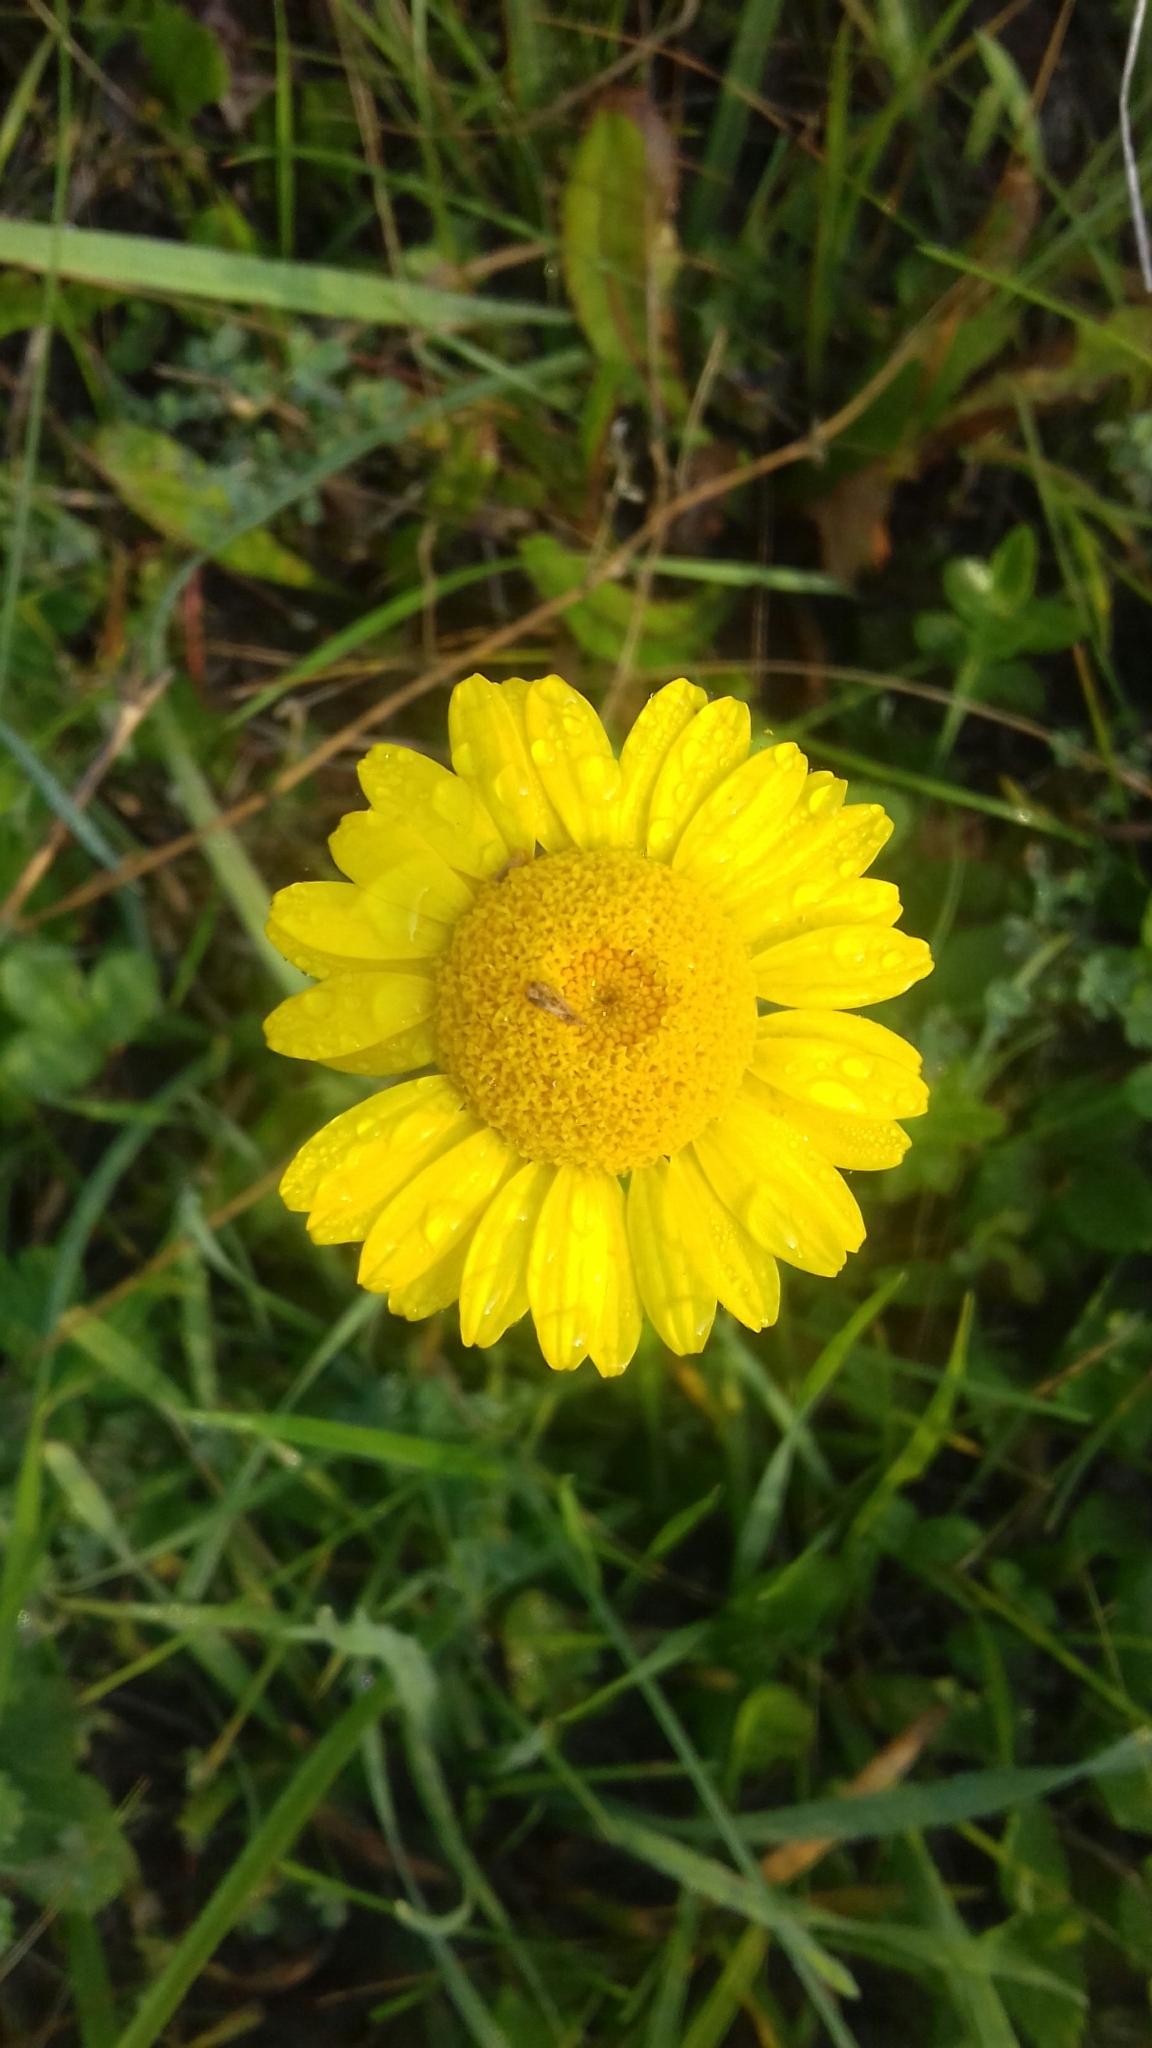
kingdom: Plantae
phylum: Tracheophyta
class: Magnoliopsida
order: Asterales
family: Asteraceae
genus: Cota
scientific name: Cota tinctoria
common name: Golden chamomile
